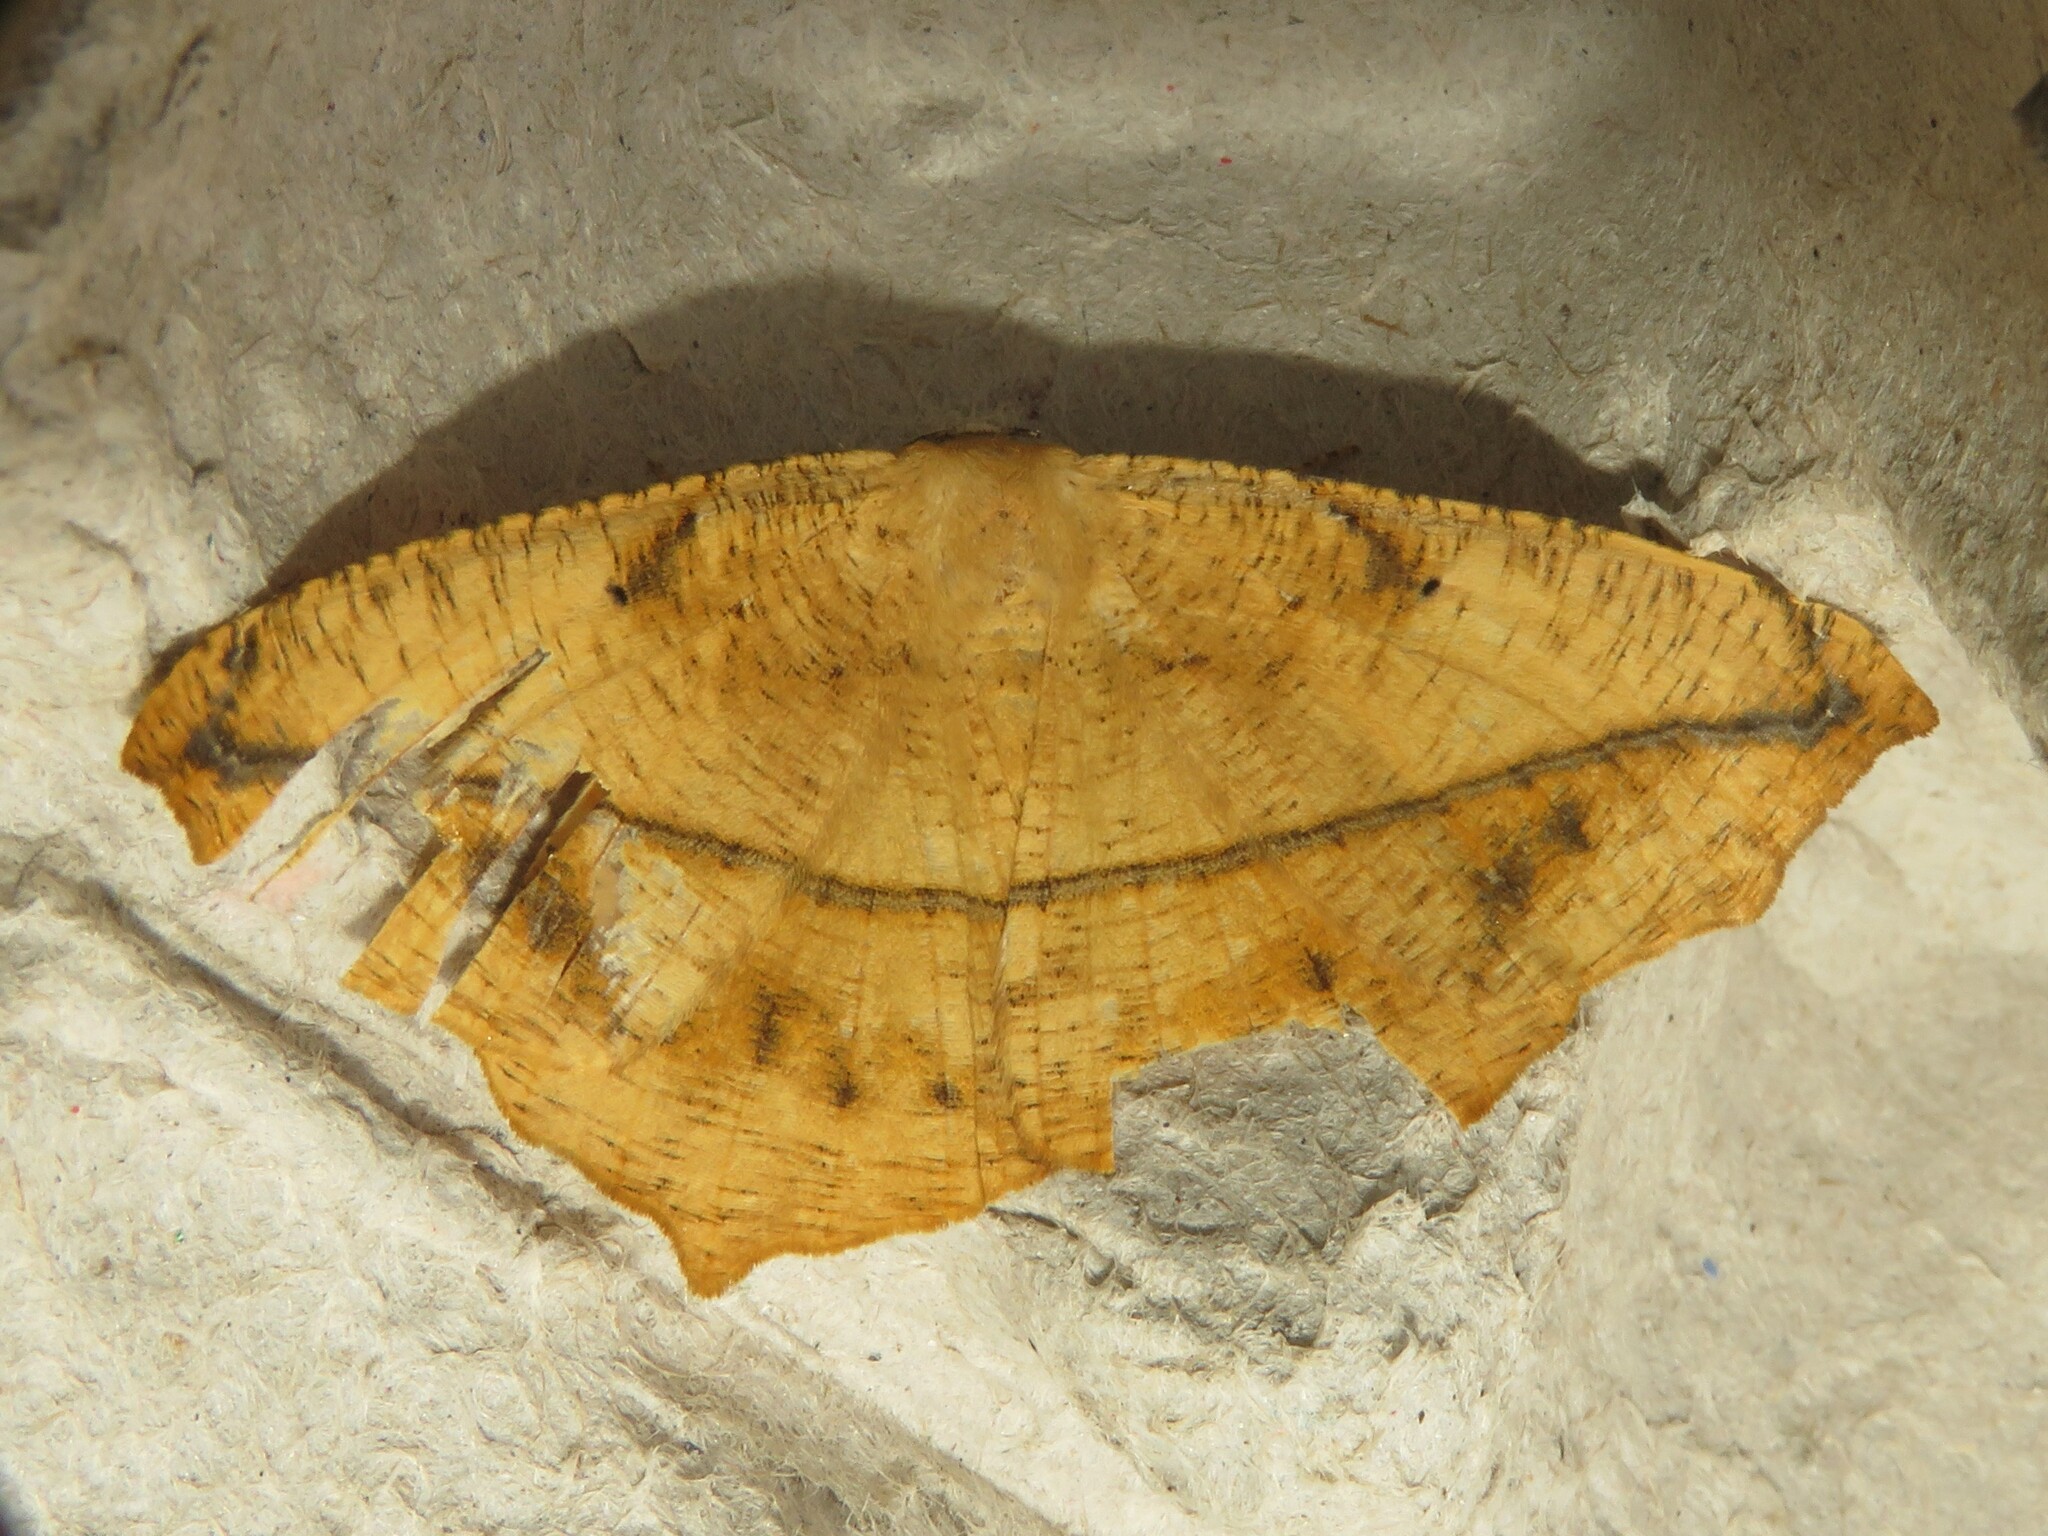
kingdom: Animalia
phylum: Arthropoda
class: Insecta
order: Lepidoptera
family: Geometridae
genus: Prochoerodes
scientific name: Prochoerodes lineola
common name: Large maple spanworm
